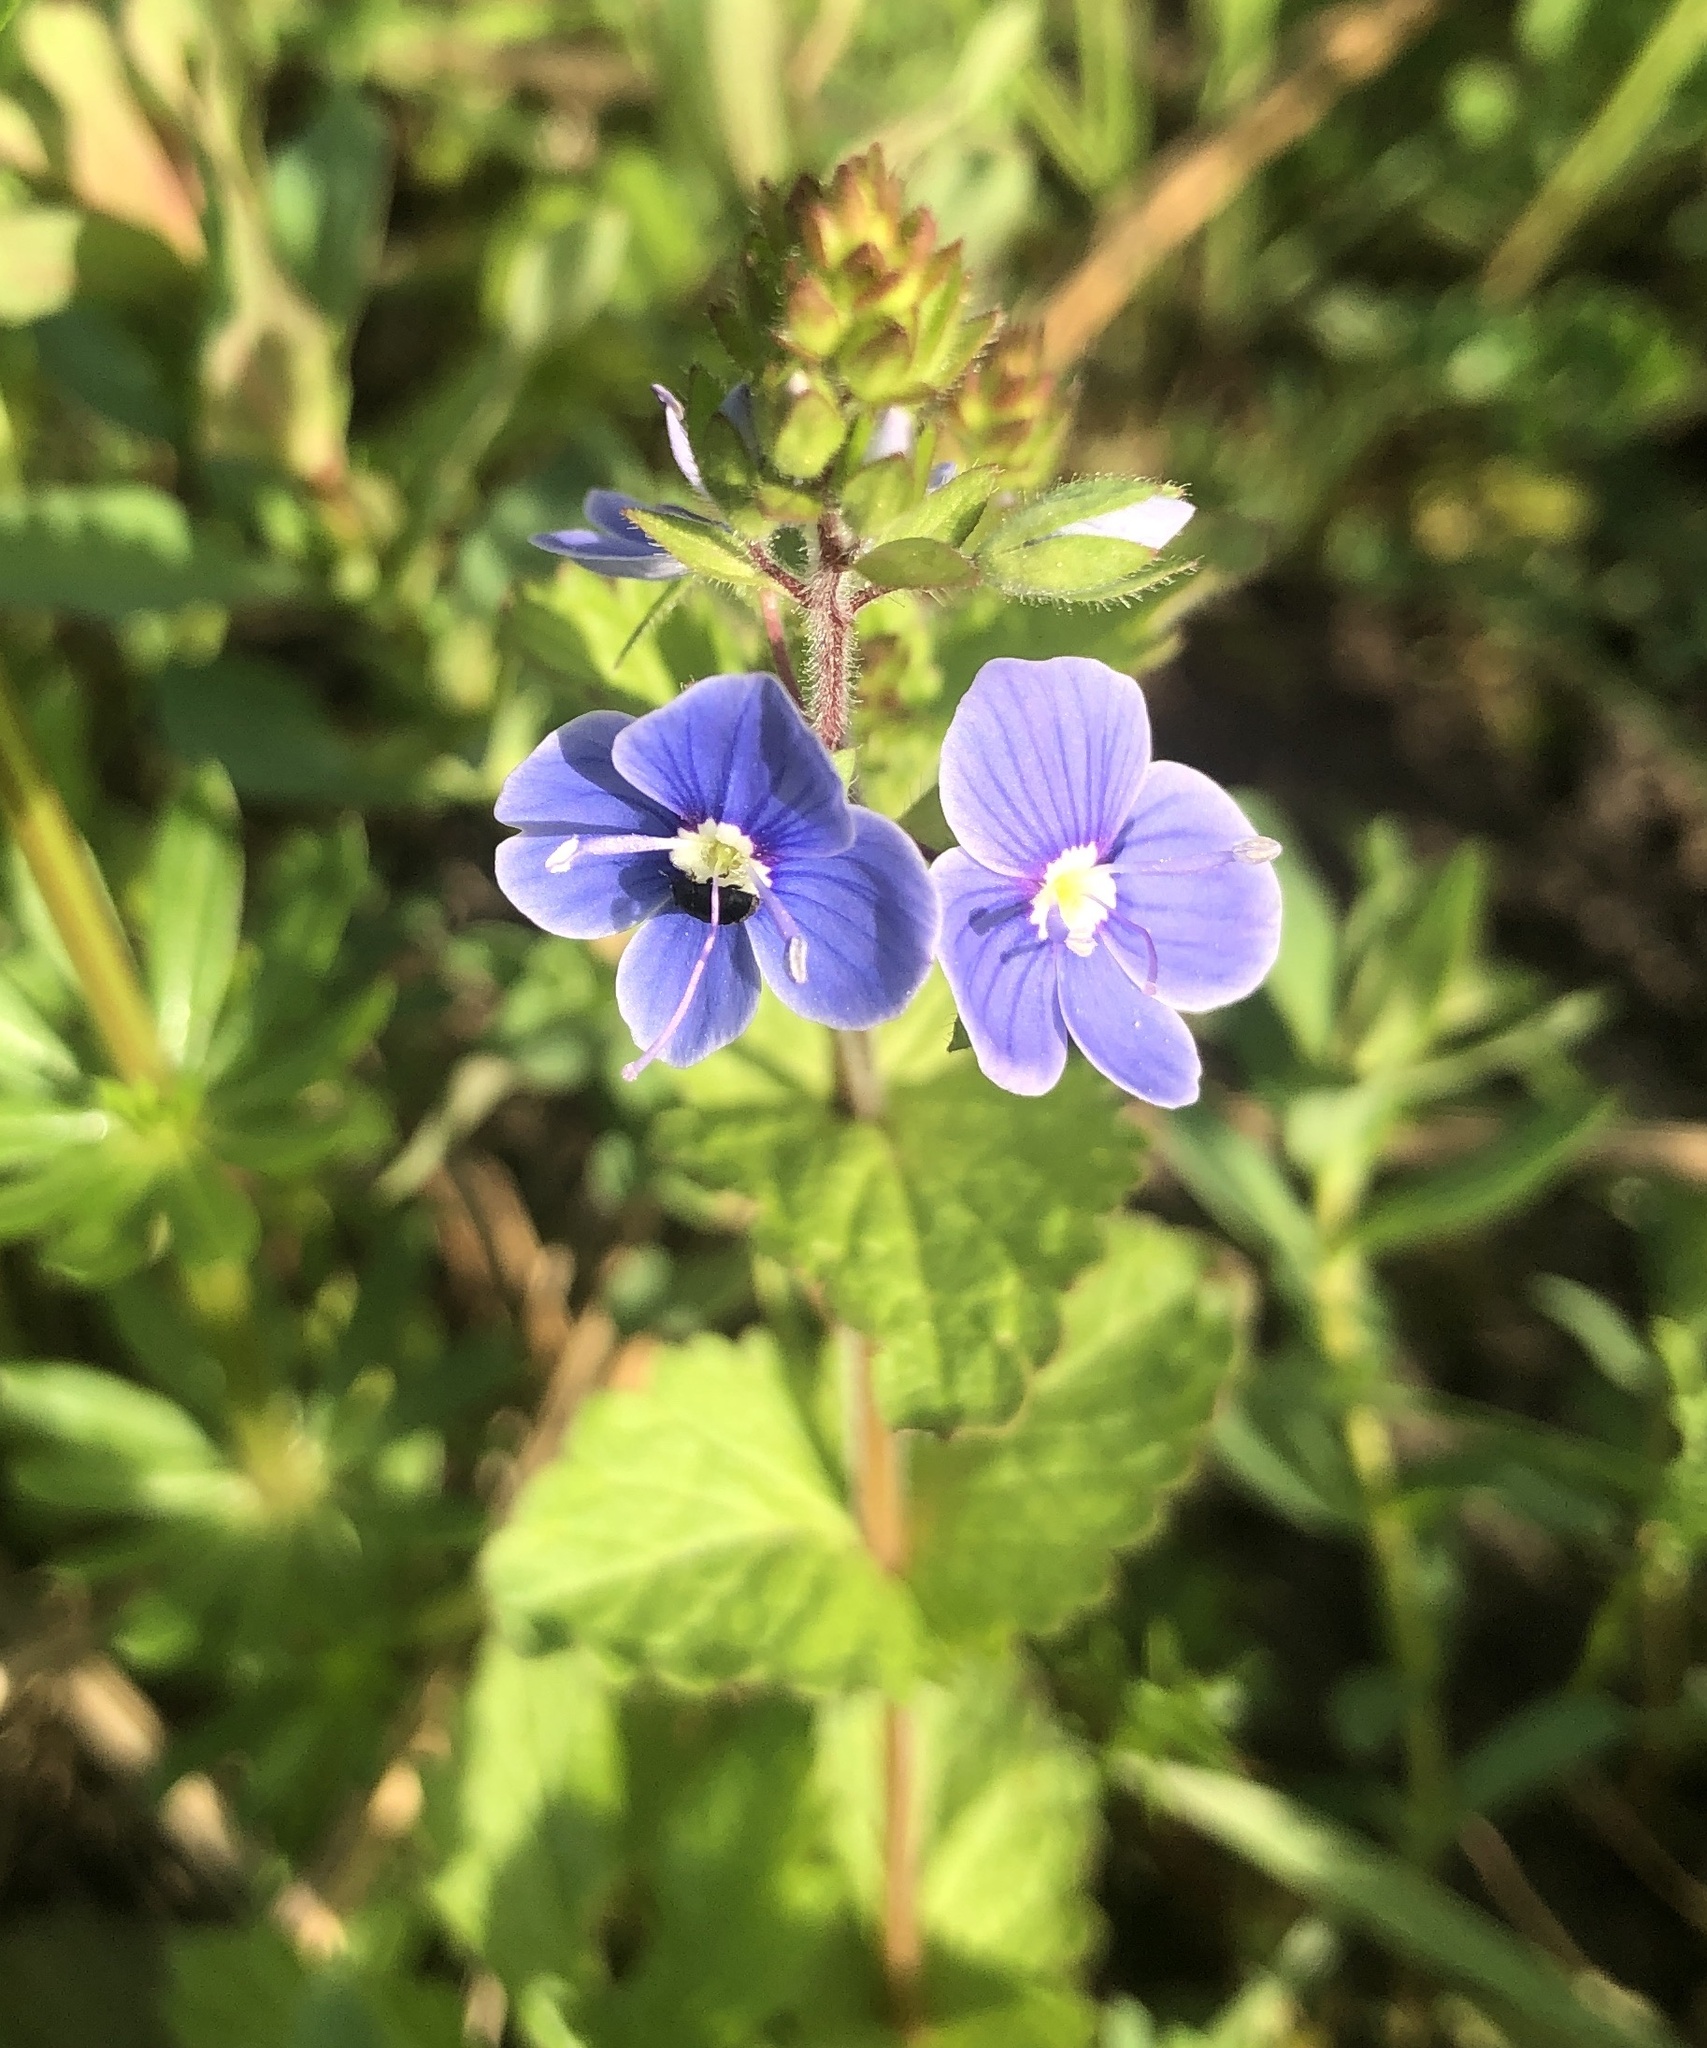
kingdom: Plantae
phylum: Tracheophyta
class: Magnoliopsida
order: Lamiales
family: Plantaginaceae
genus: Veronica
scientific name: Veronica chamaedrys
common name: Germander speedwell
